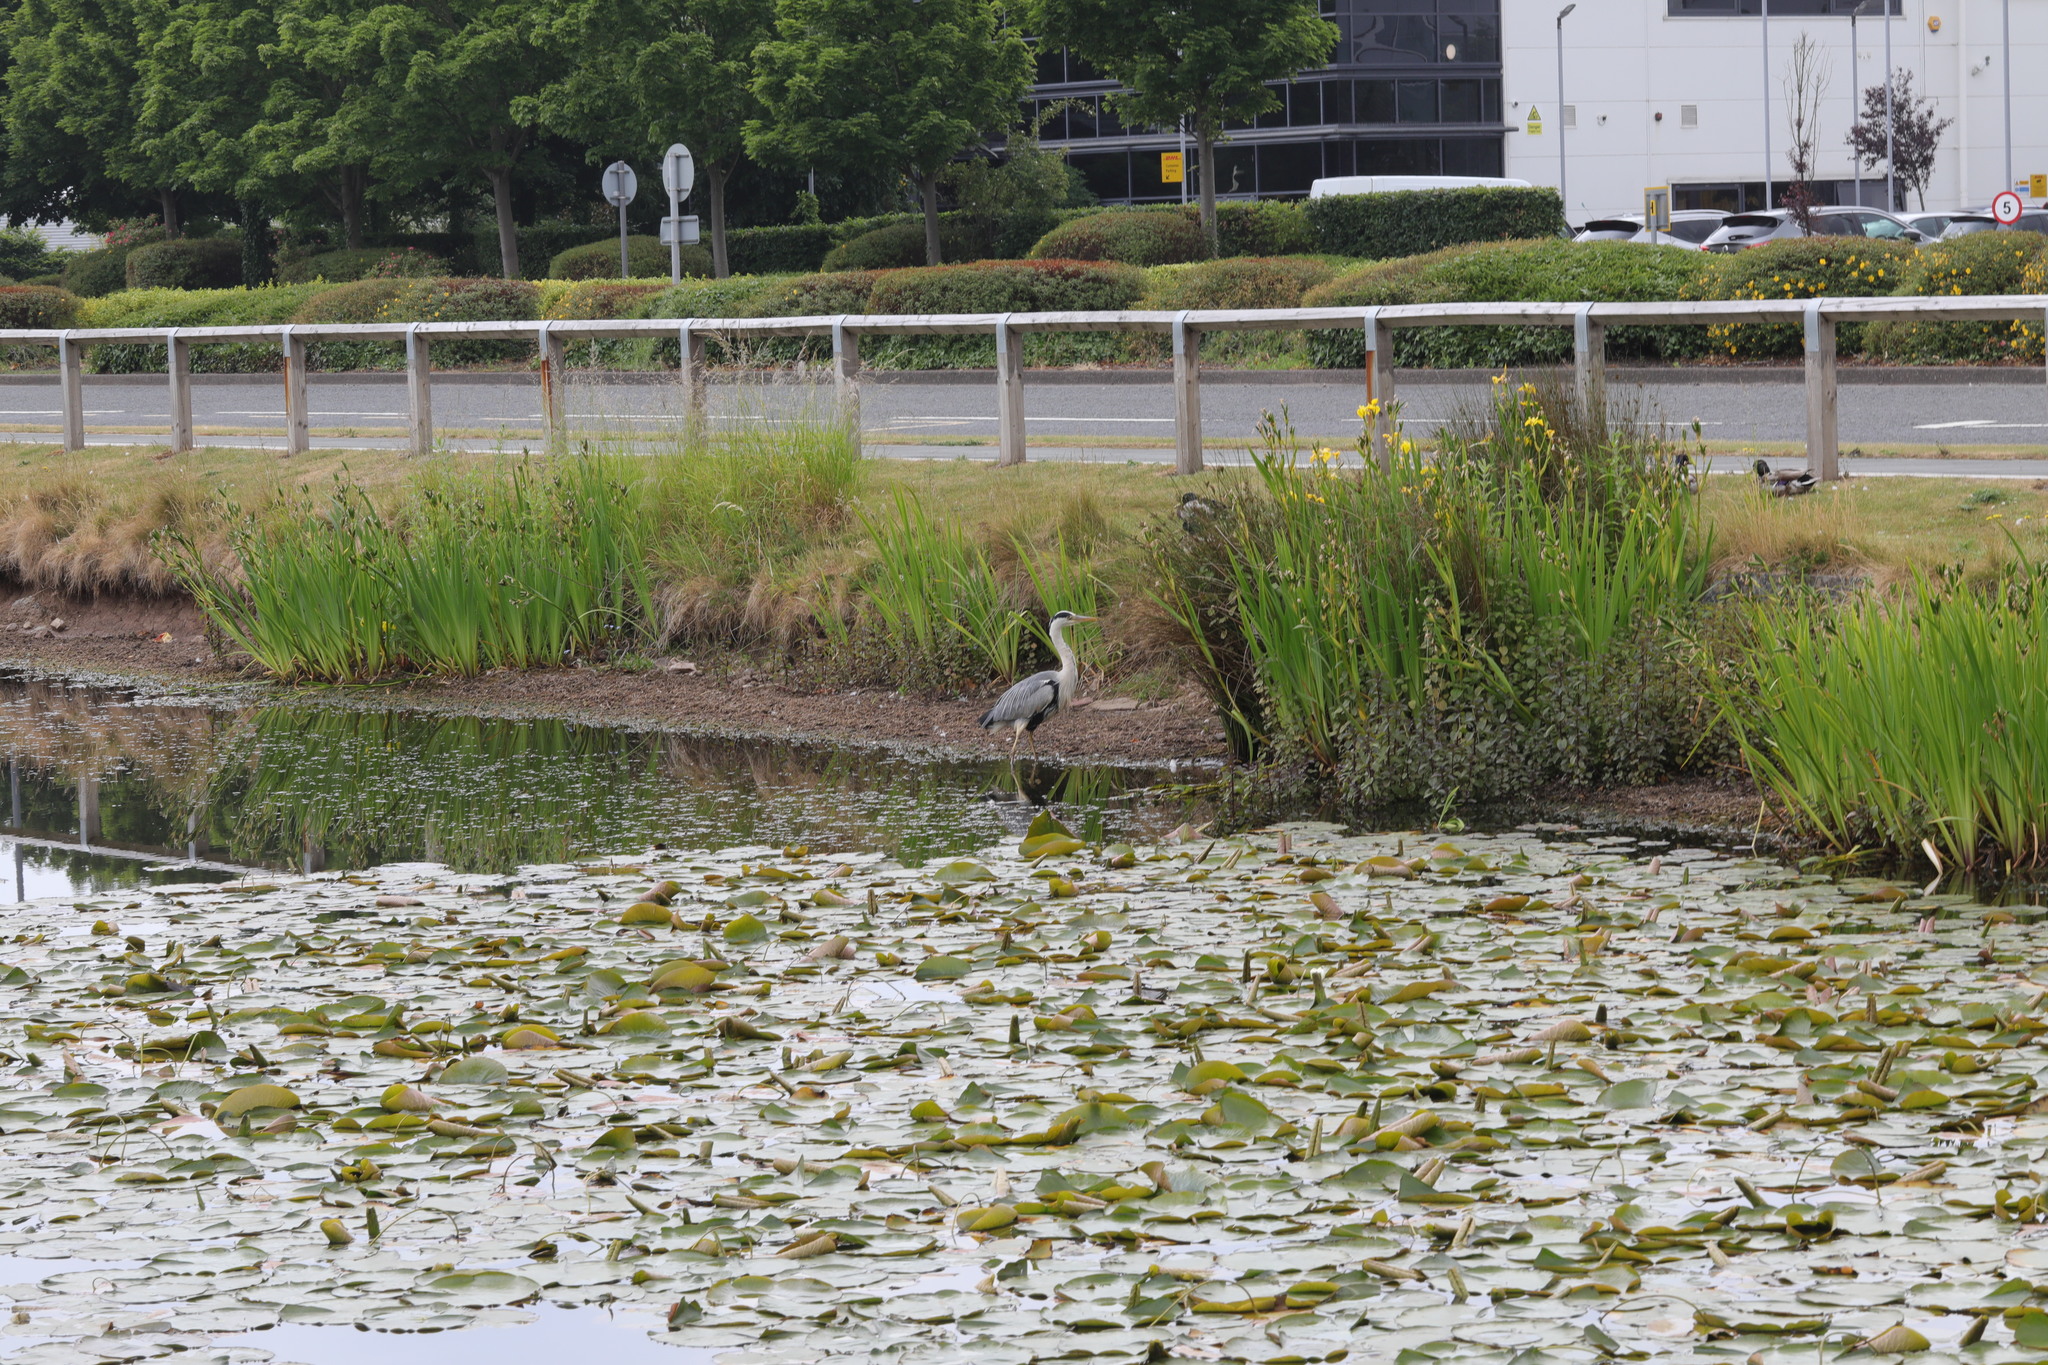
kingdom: Animalia
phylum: Chordata
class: Aves
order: Pelecaniformes
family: Ardeidae
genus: Ardea
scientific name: Ardea cinerea
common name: Grey heron
